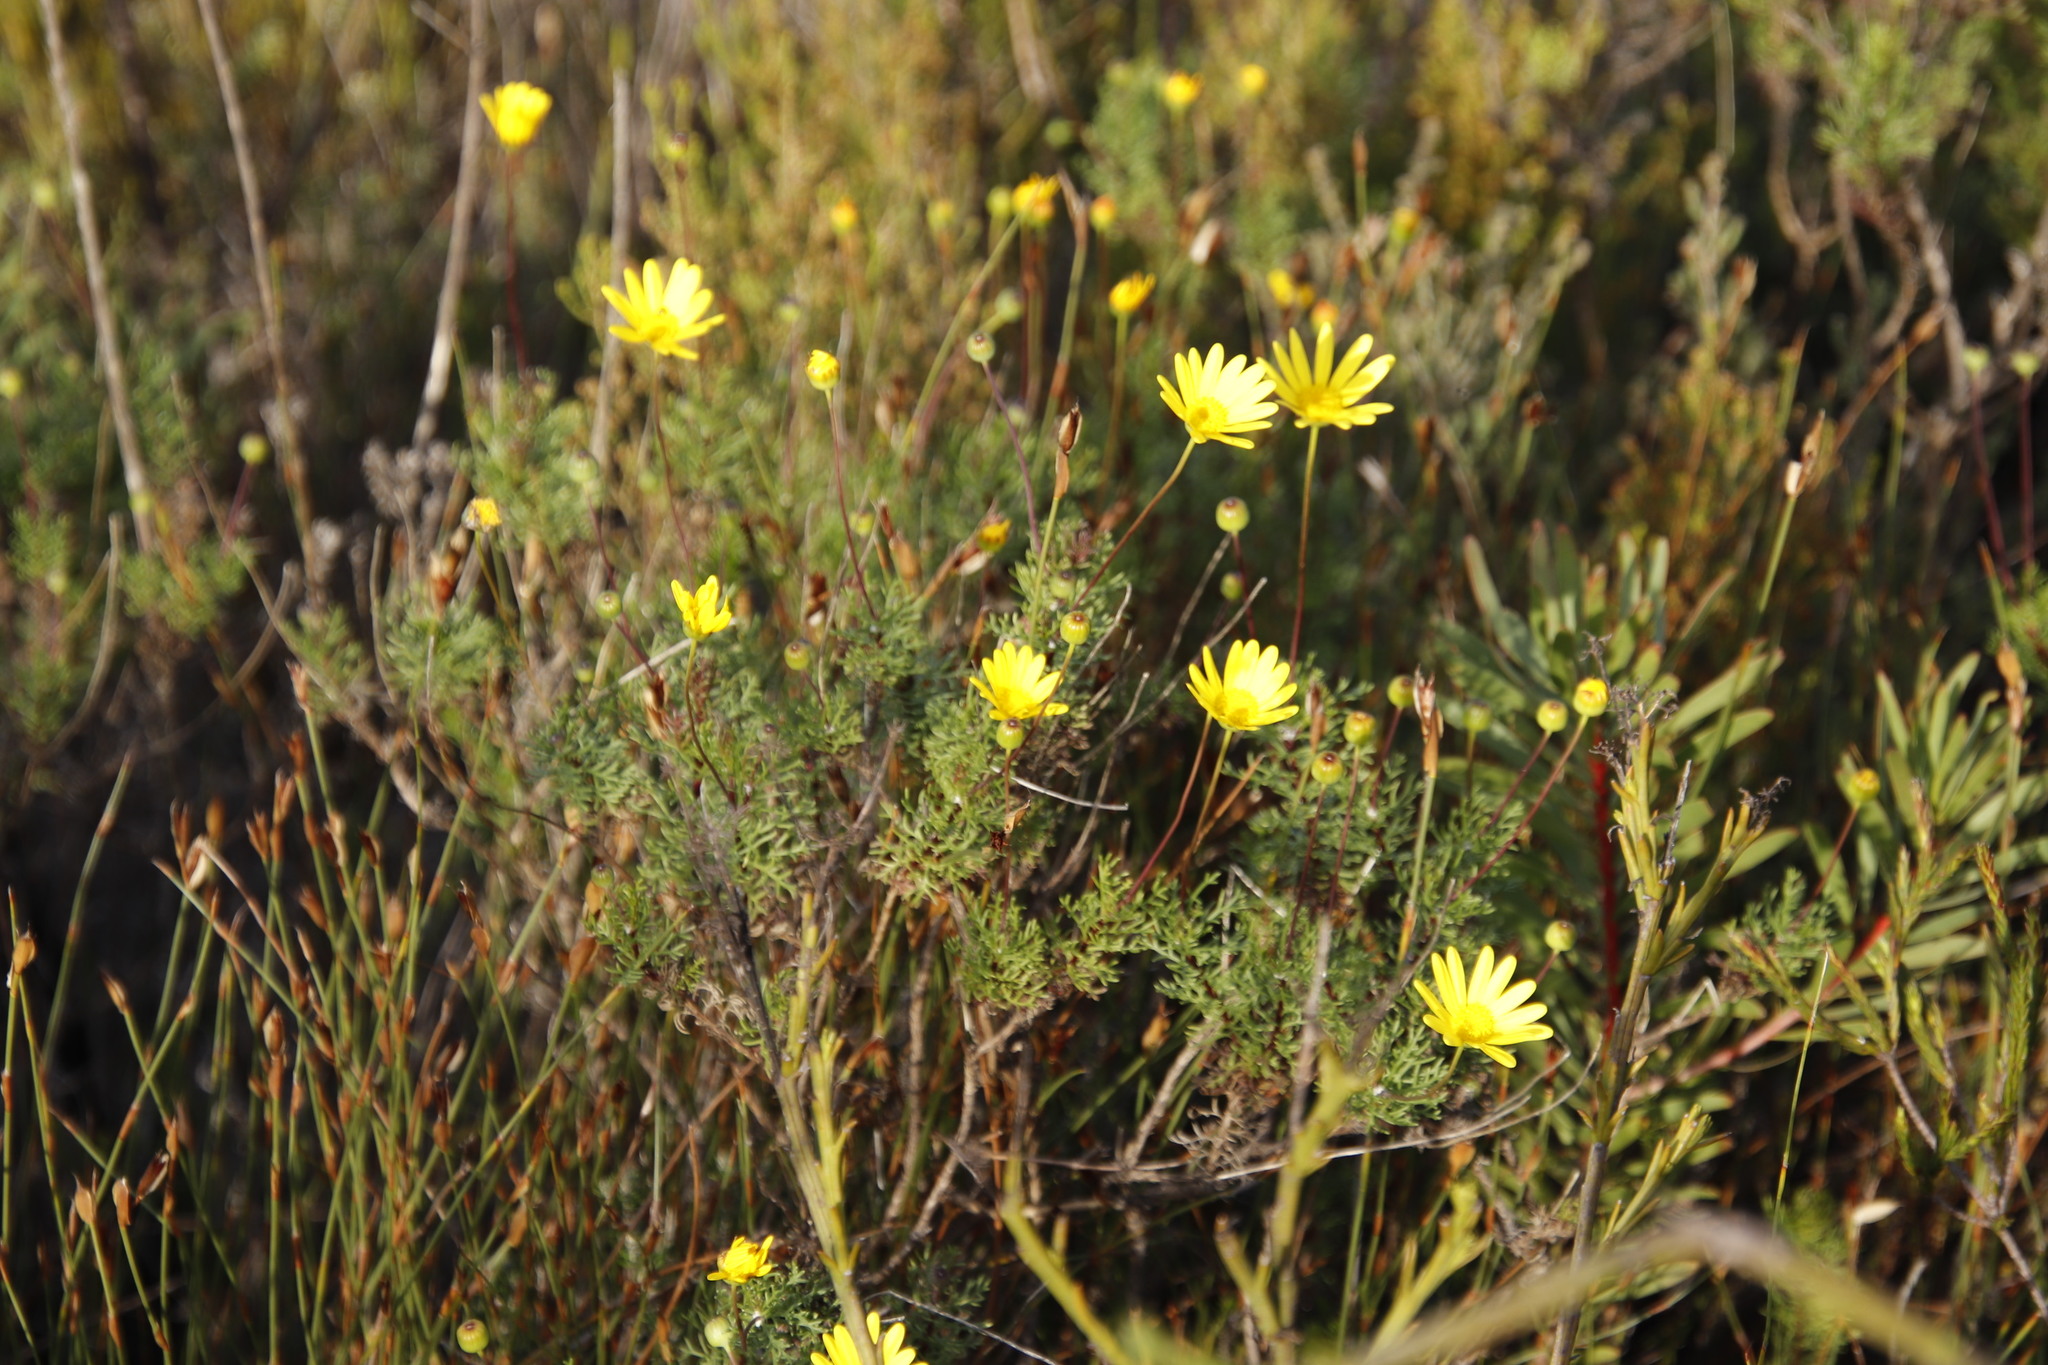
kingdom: Plantae
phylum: Tracheophyta
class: Magnoliopsida
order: Asterales
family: Asteraceae
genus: Euryops
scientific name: Euryops abrotanifolius
